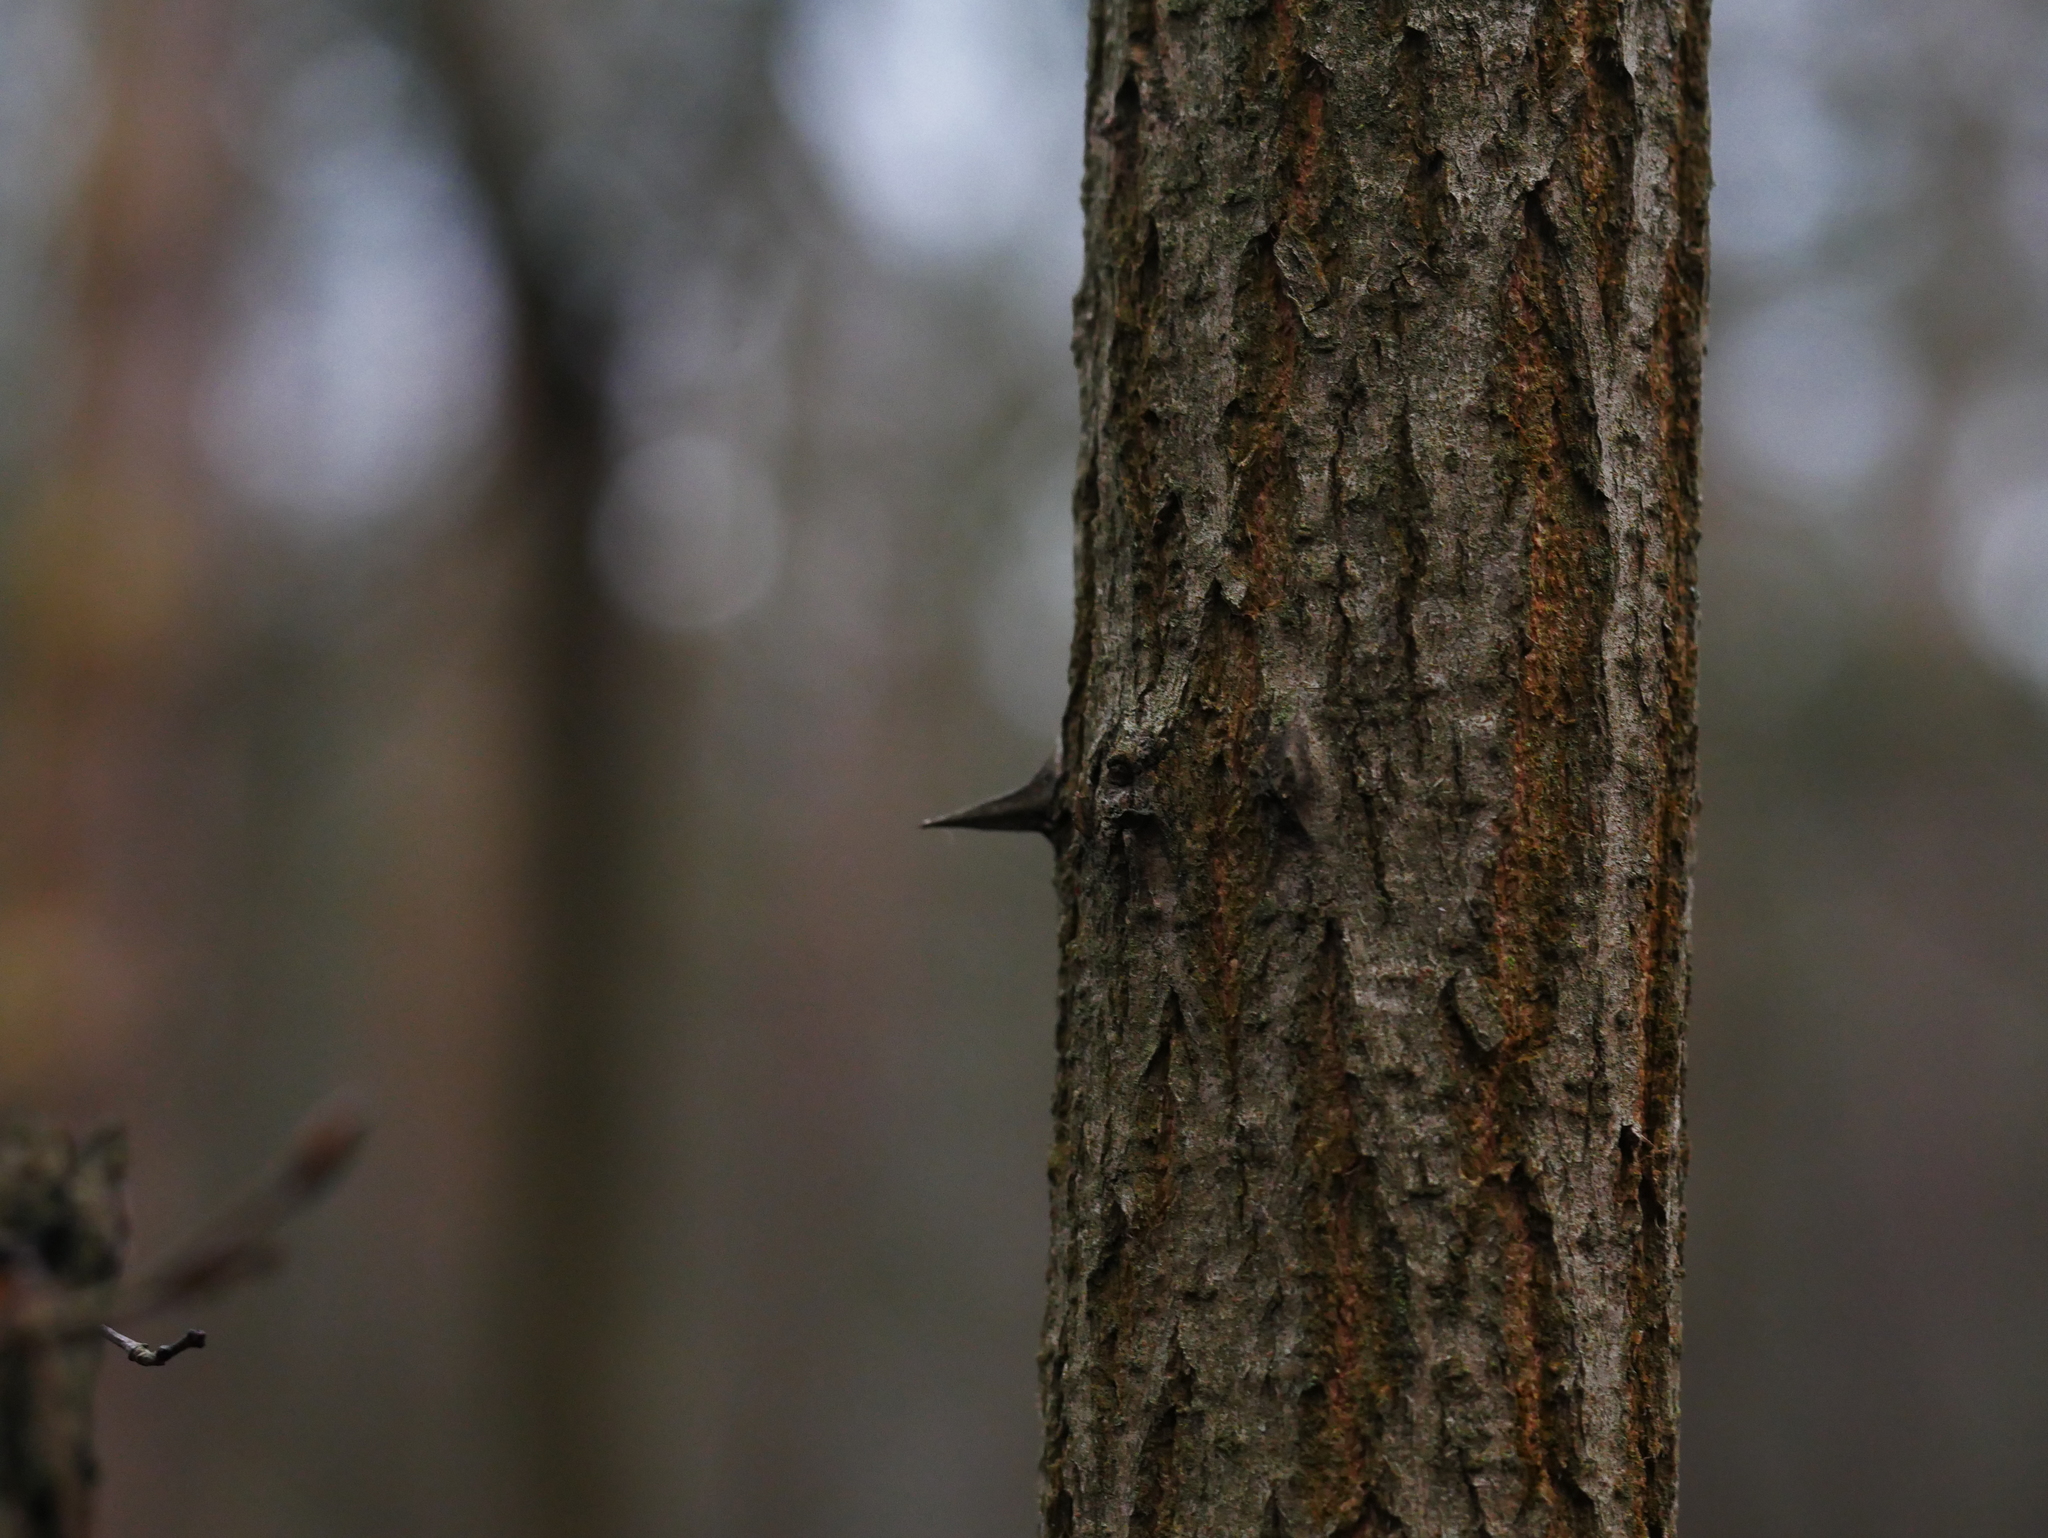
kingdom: Plantae
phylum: Tracheophyta
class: Magnoliopsida
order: Fabales
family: Fabaceae
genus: Robinia
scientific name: Robinia pseudoacacia
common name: Black locust
